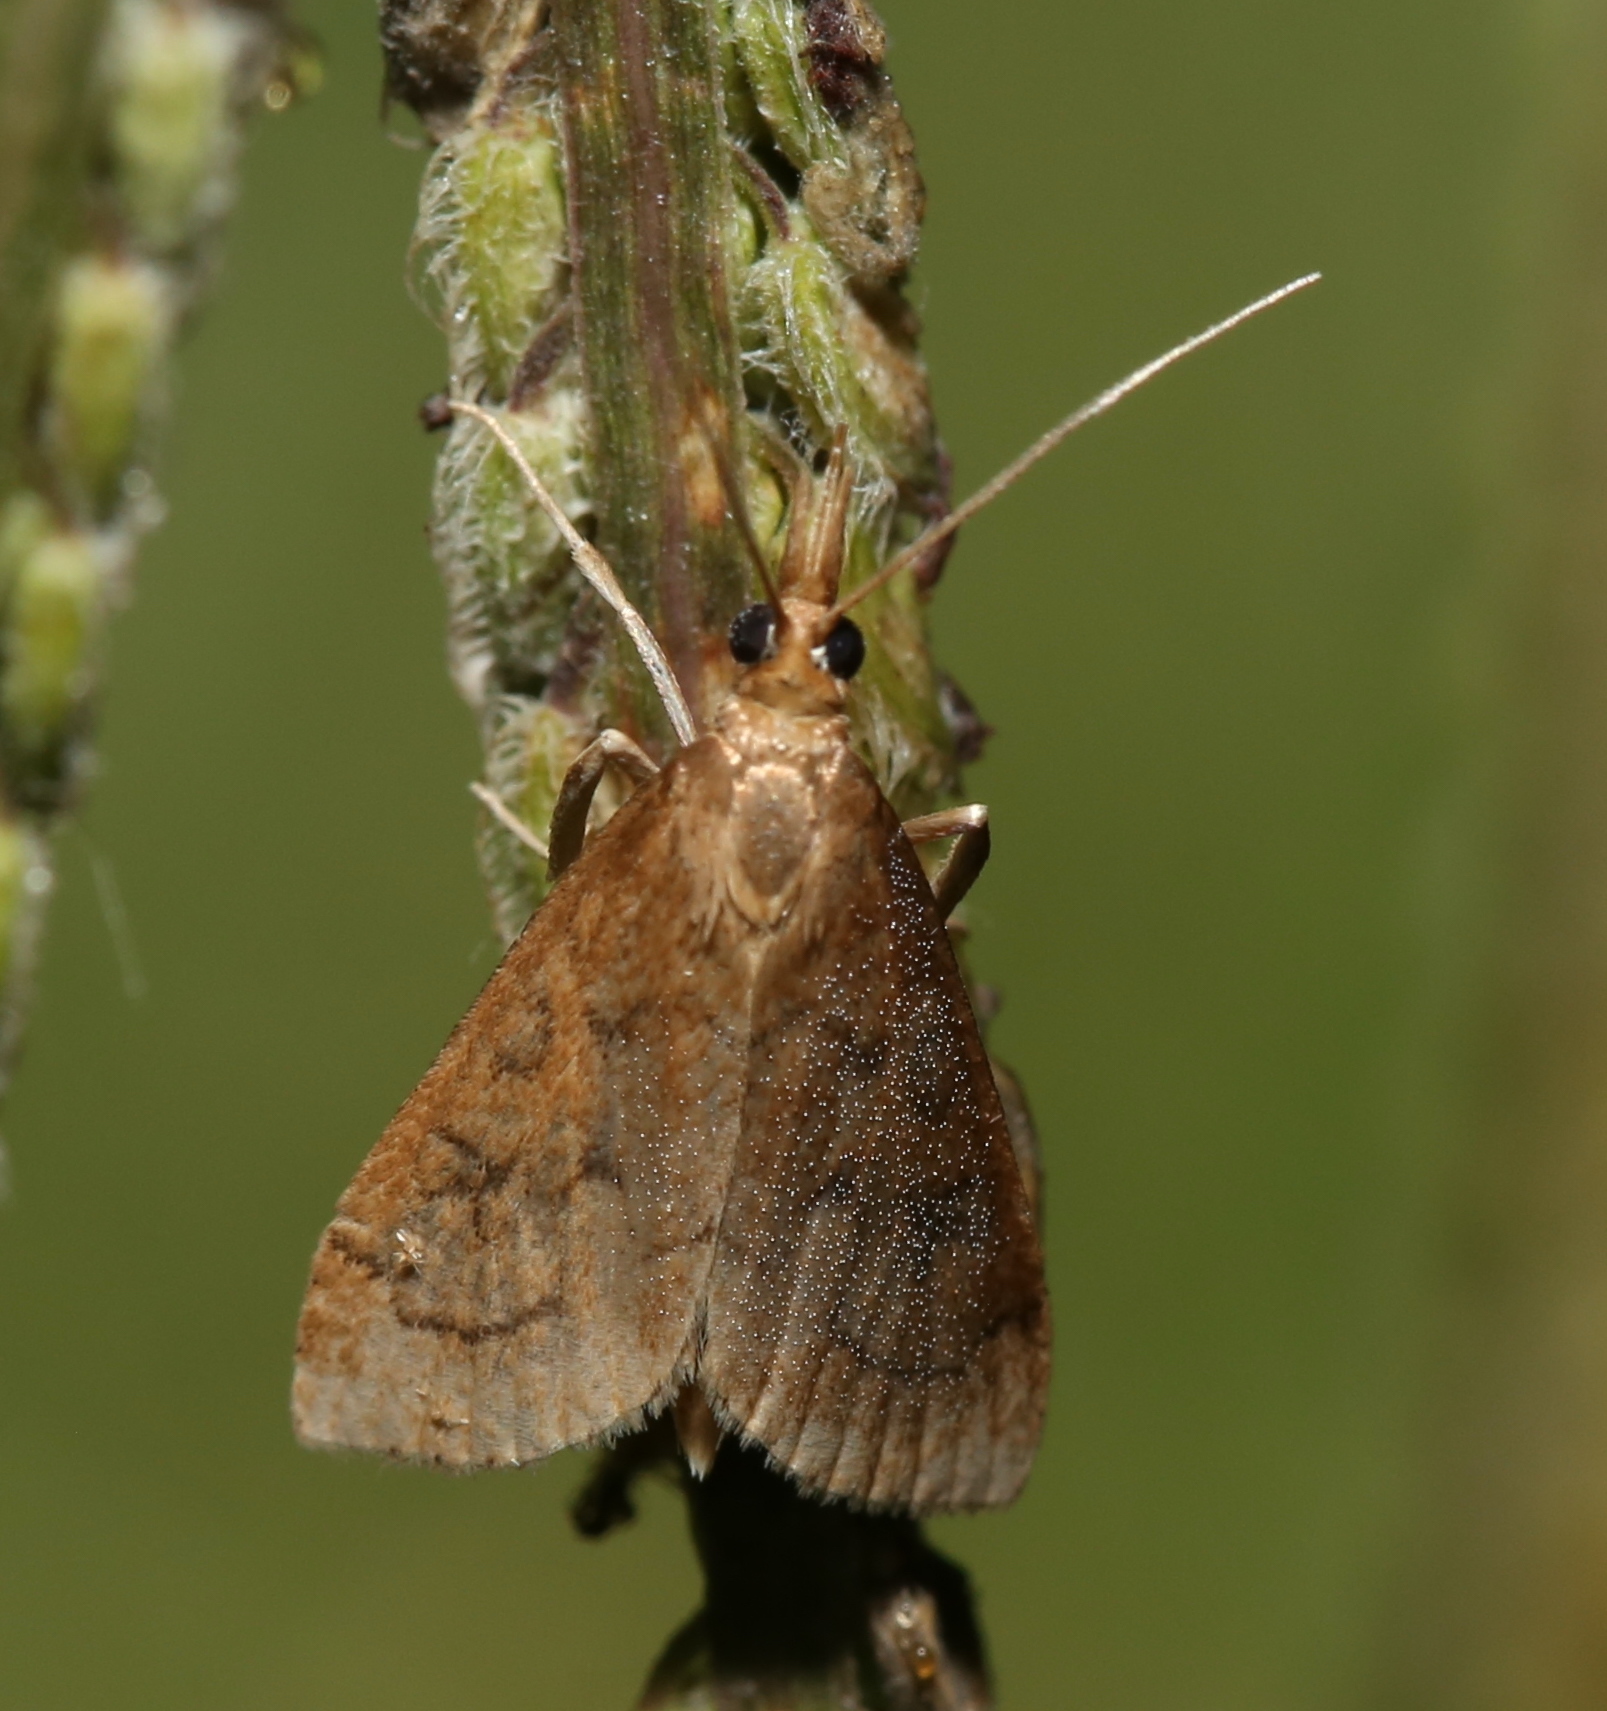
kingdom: Animalia
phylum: Arthropoda
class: Insecta
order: Lepidoptera
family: Crambidae
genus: Udea
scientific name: Udea rubigalis
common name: Celery leaftier moth
